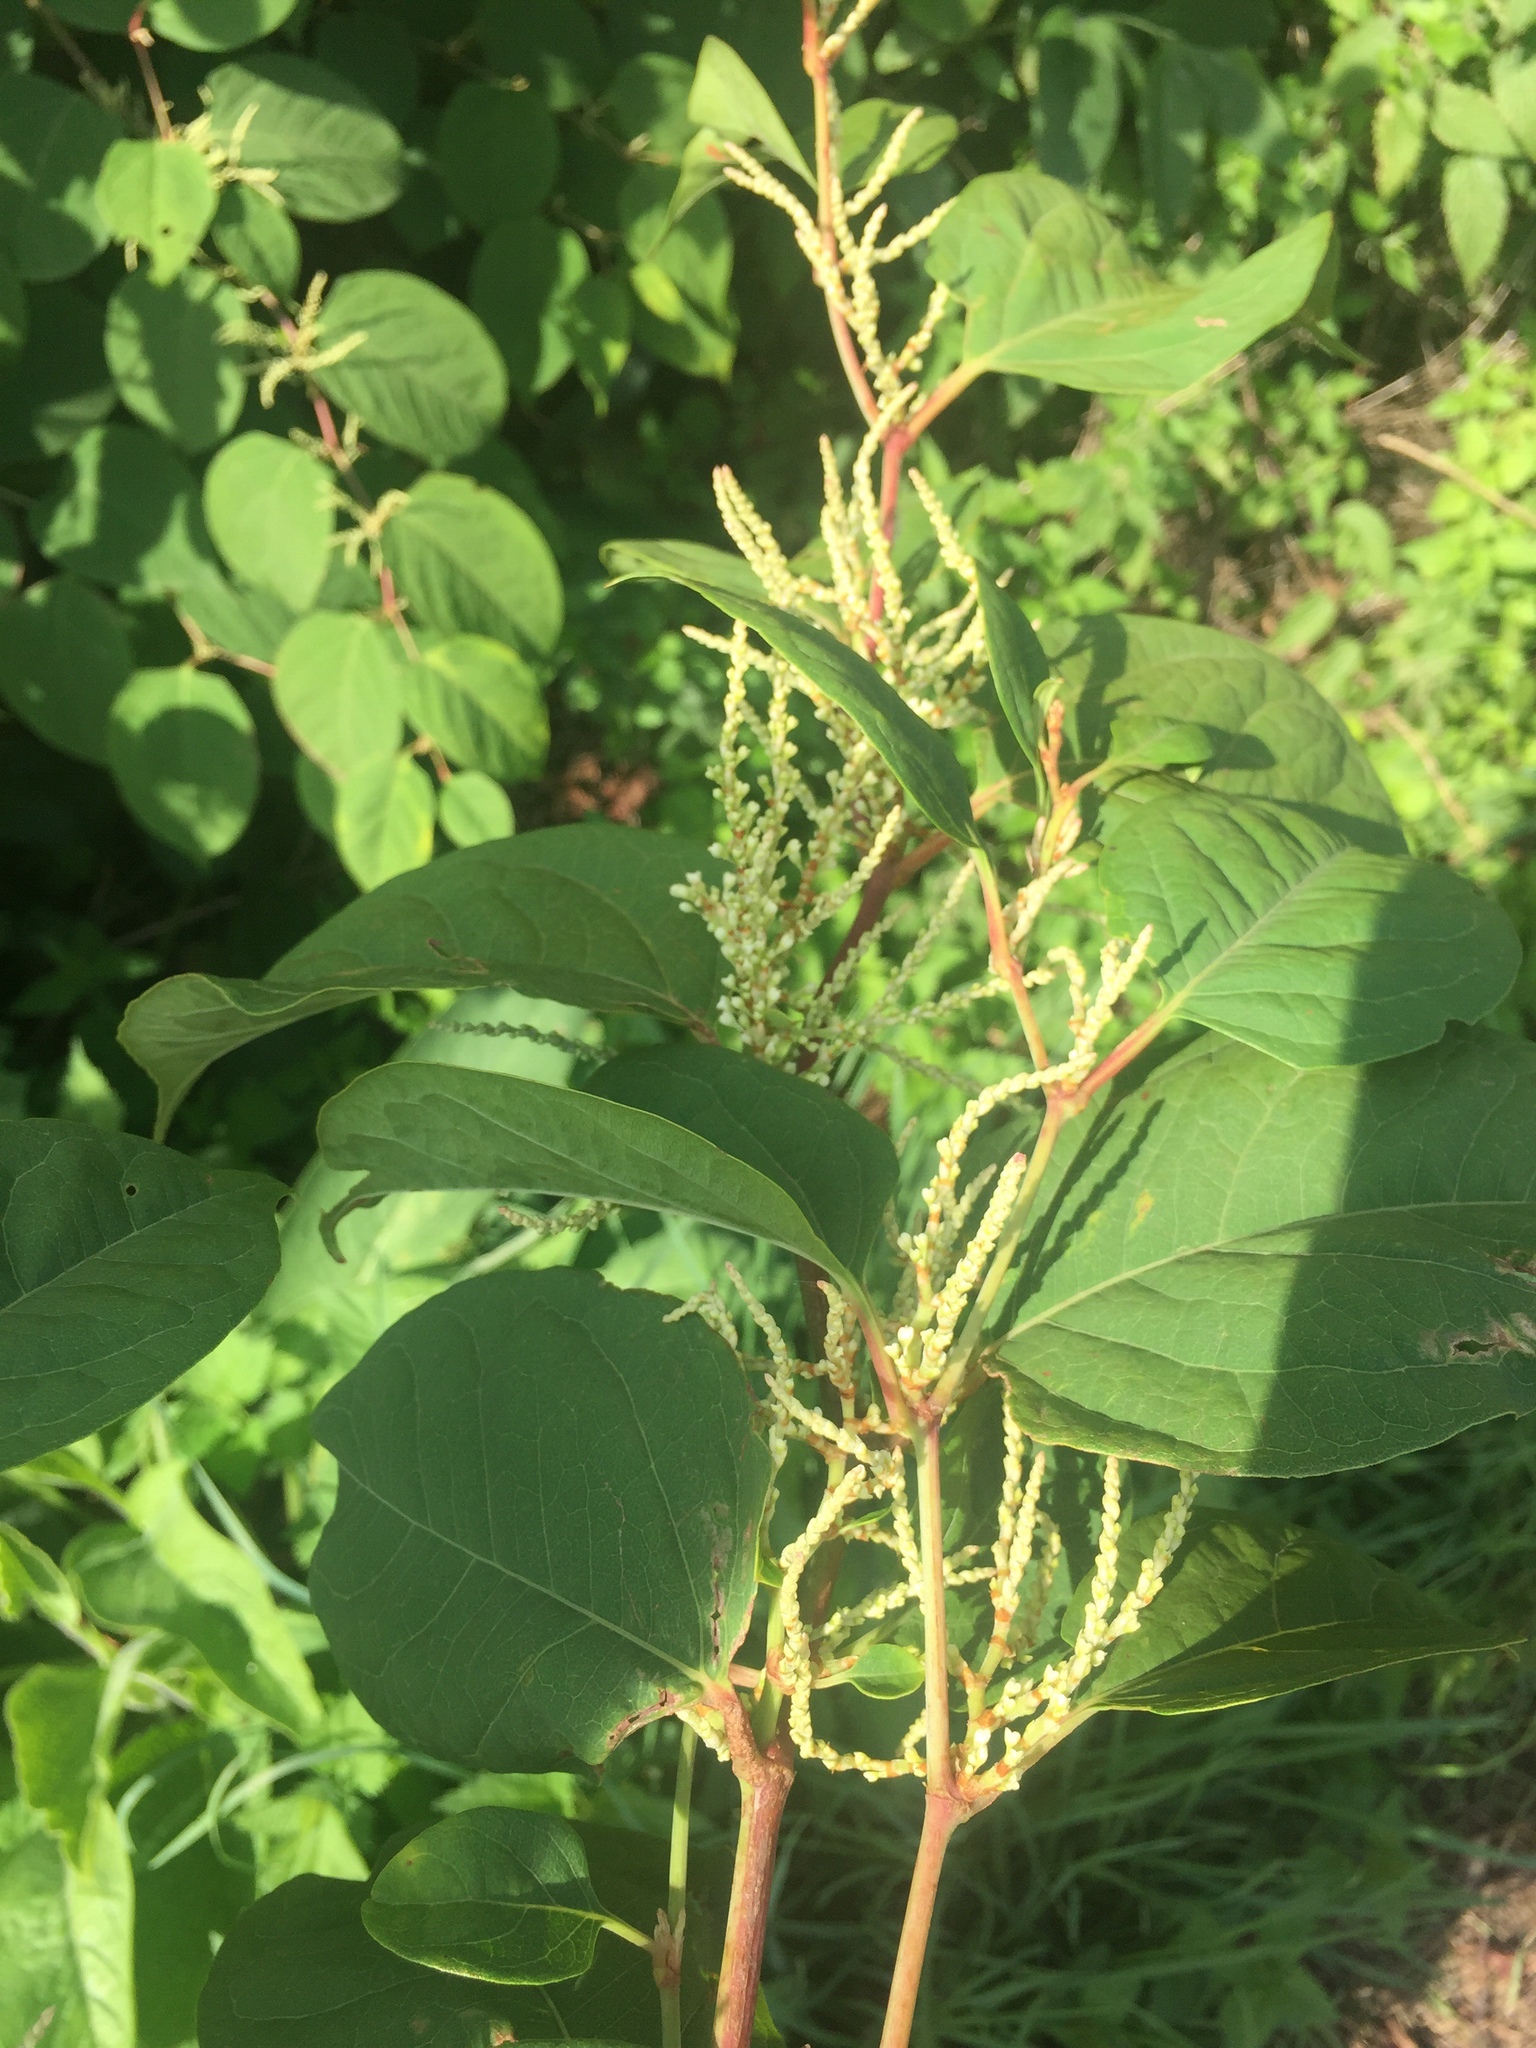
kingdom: Plantae
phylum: Tracheophyta
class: Magnoliopsida
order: Caryophyllales
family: Polygonaceae
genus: Reynoutria
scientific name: Reynoutria japonica
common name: Japanese knotweed
